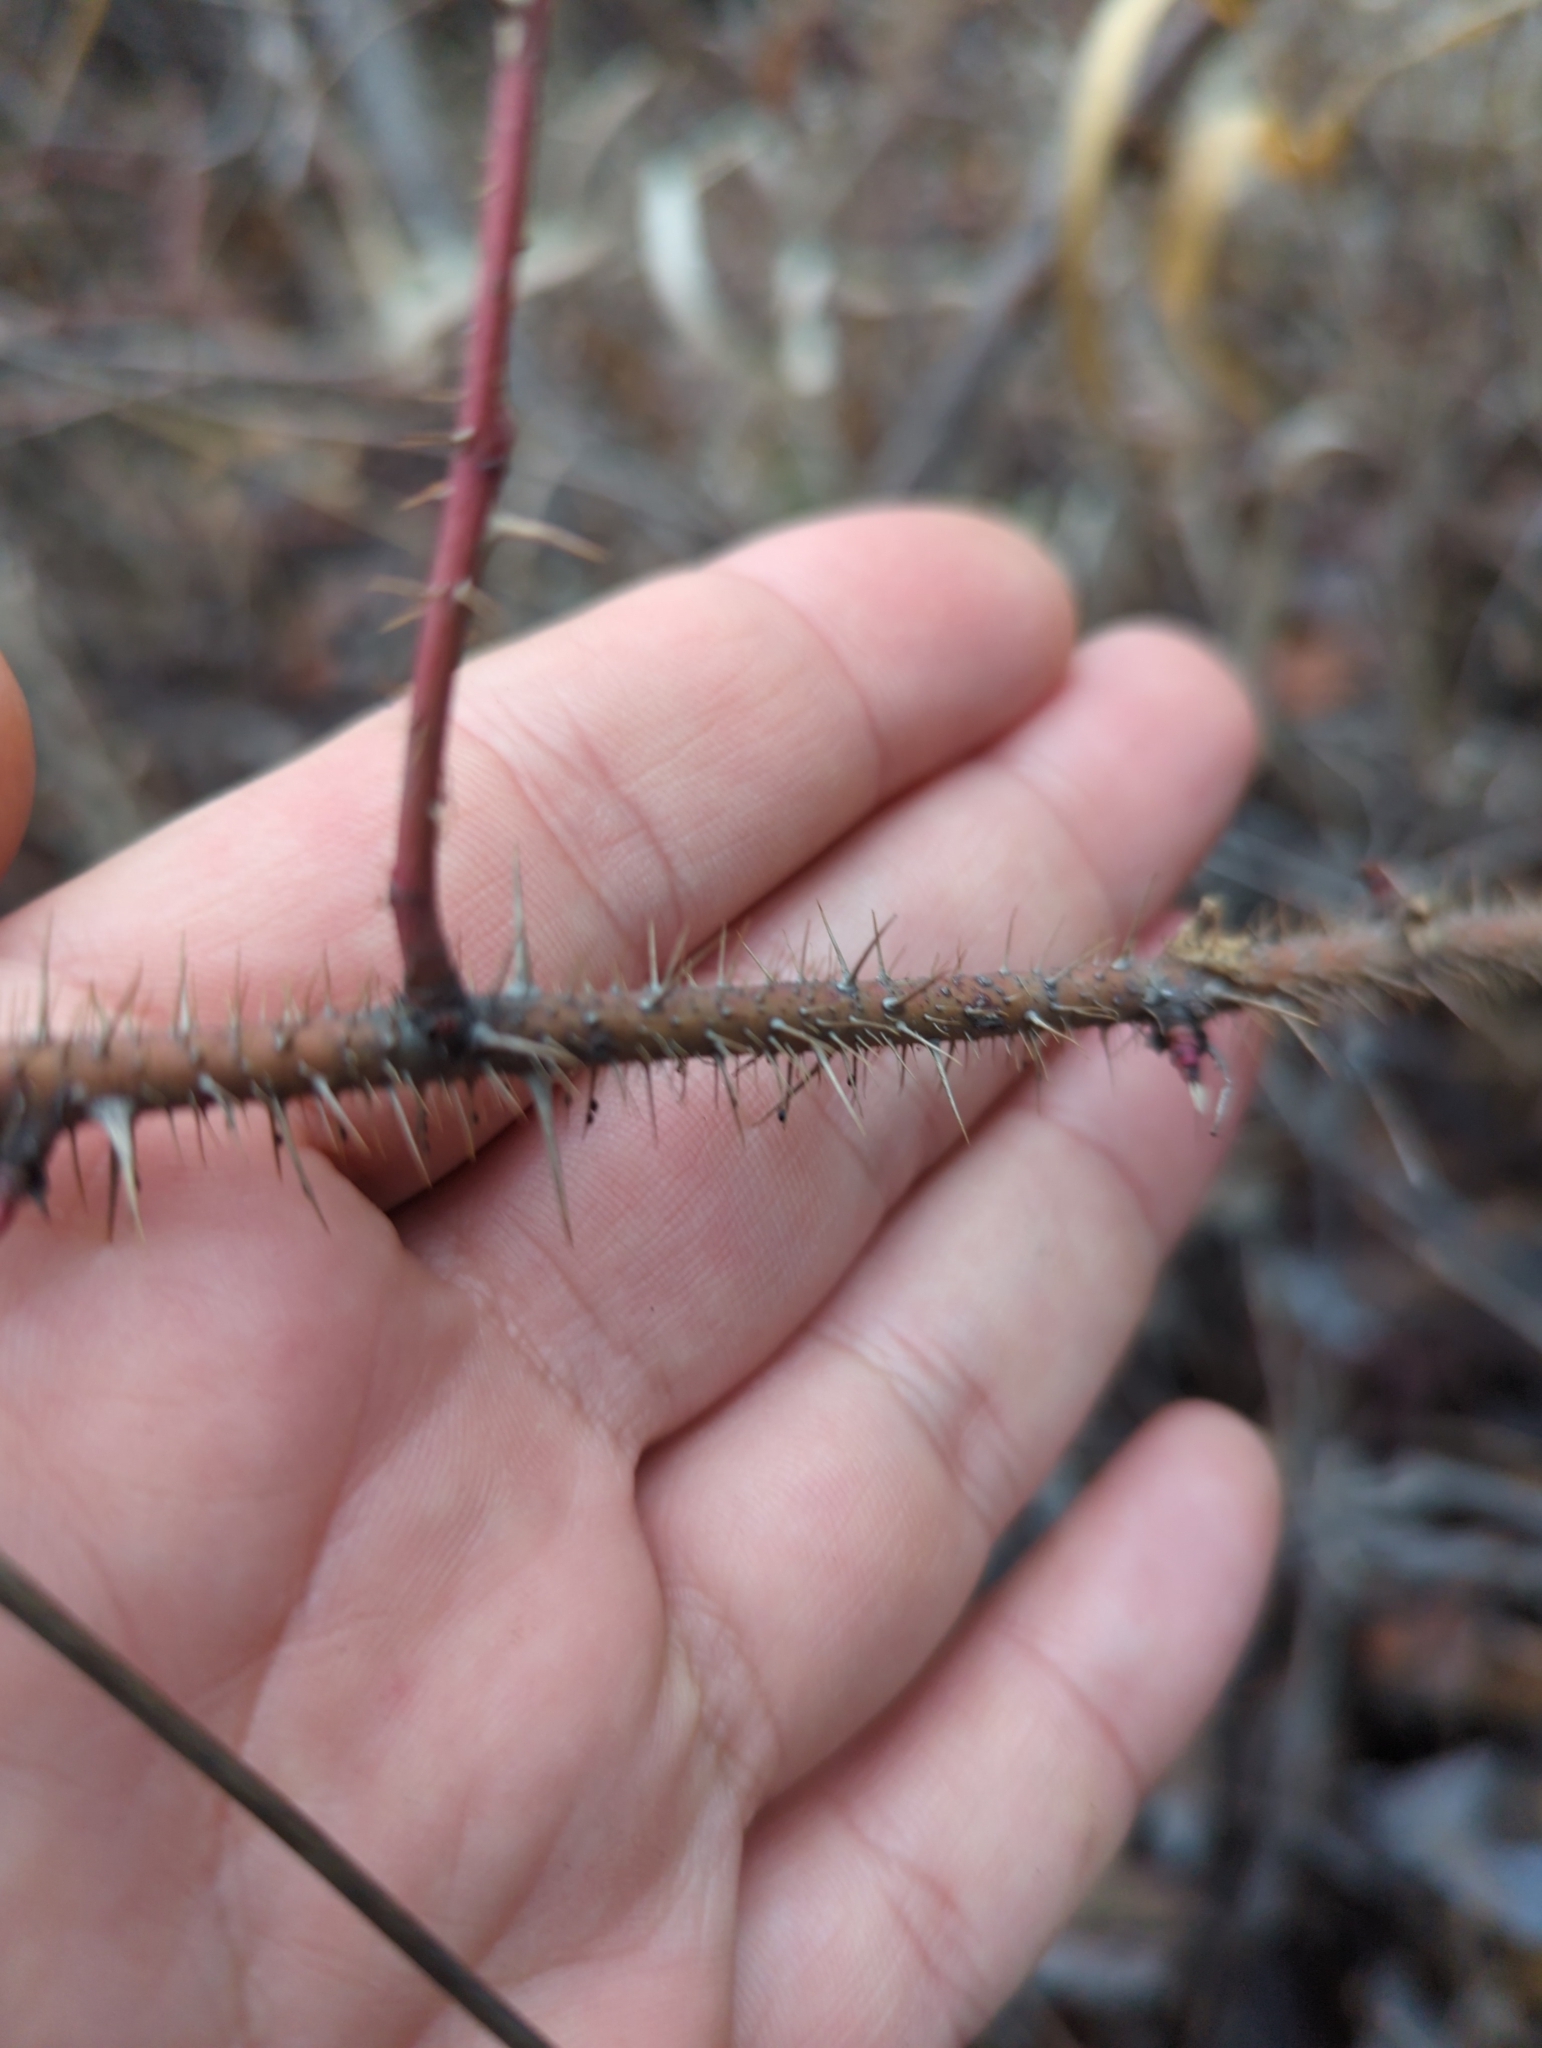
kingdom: Plantae
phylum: Tracheophyta
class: Magnoliopsida
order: Rosales
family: Rosaceae
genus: Rosa
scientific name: Rosa acicularis
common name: Prickly rose
